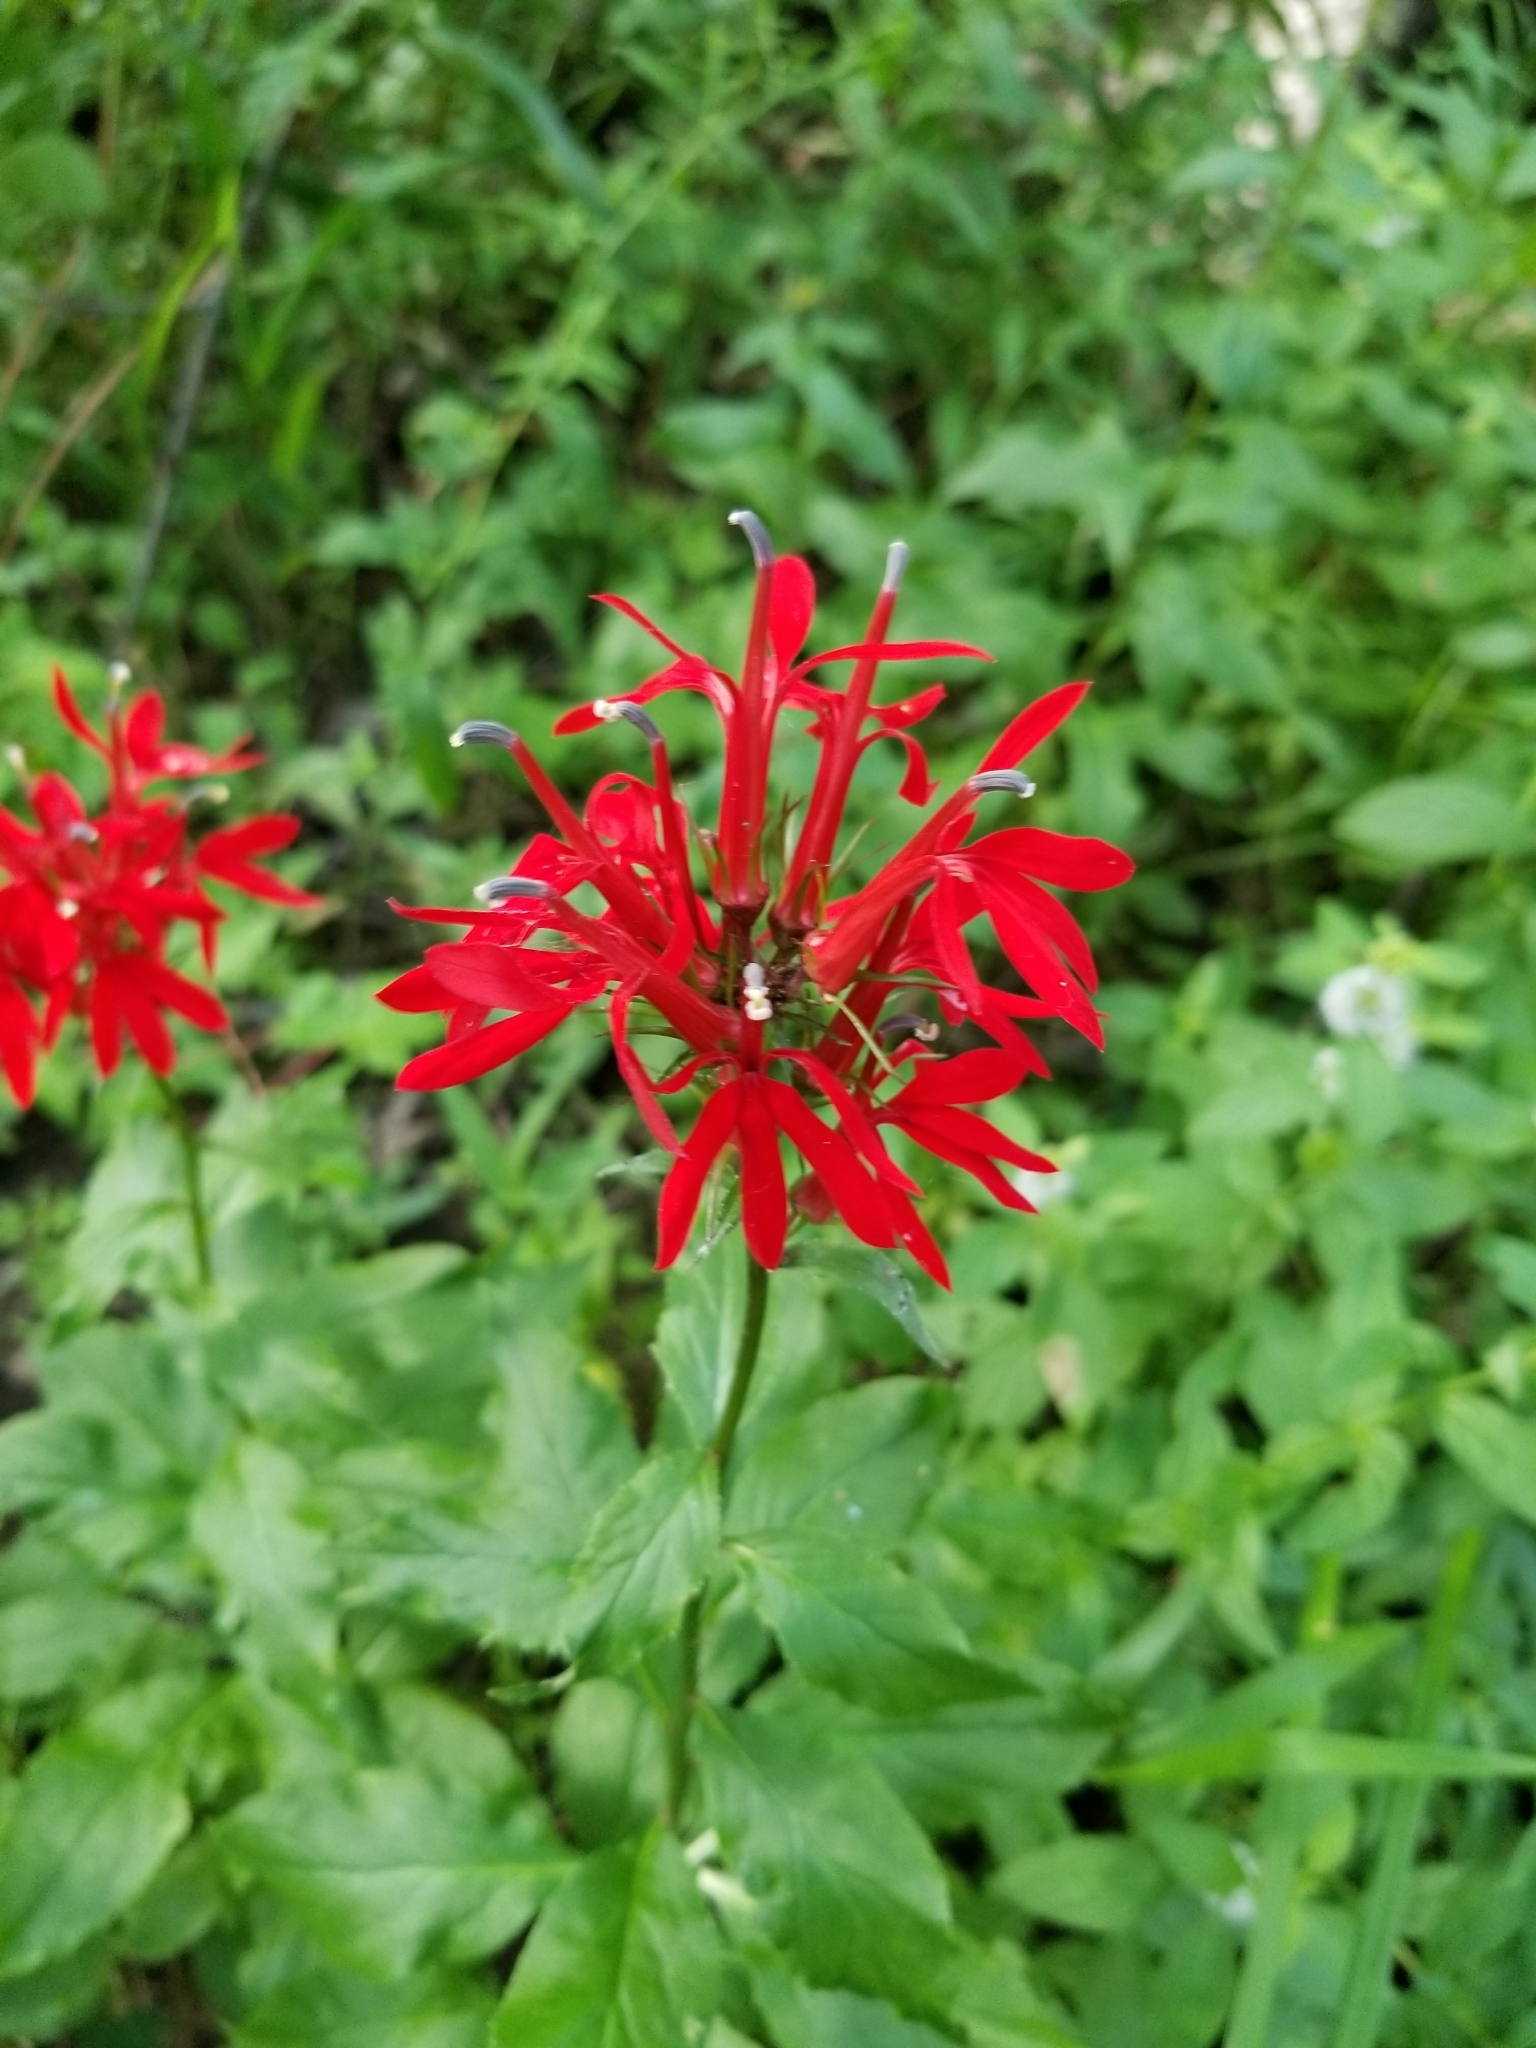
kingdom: Plantae
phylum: Tracheophyta
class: Magnoliopsida
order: Asterales
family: Campanulaceae
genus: Lobelia
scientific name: Lobelia cardinalis
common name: Cardinal flower
